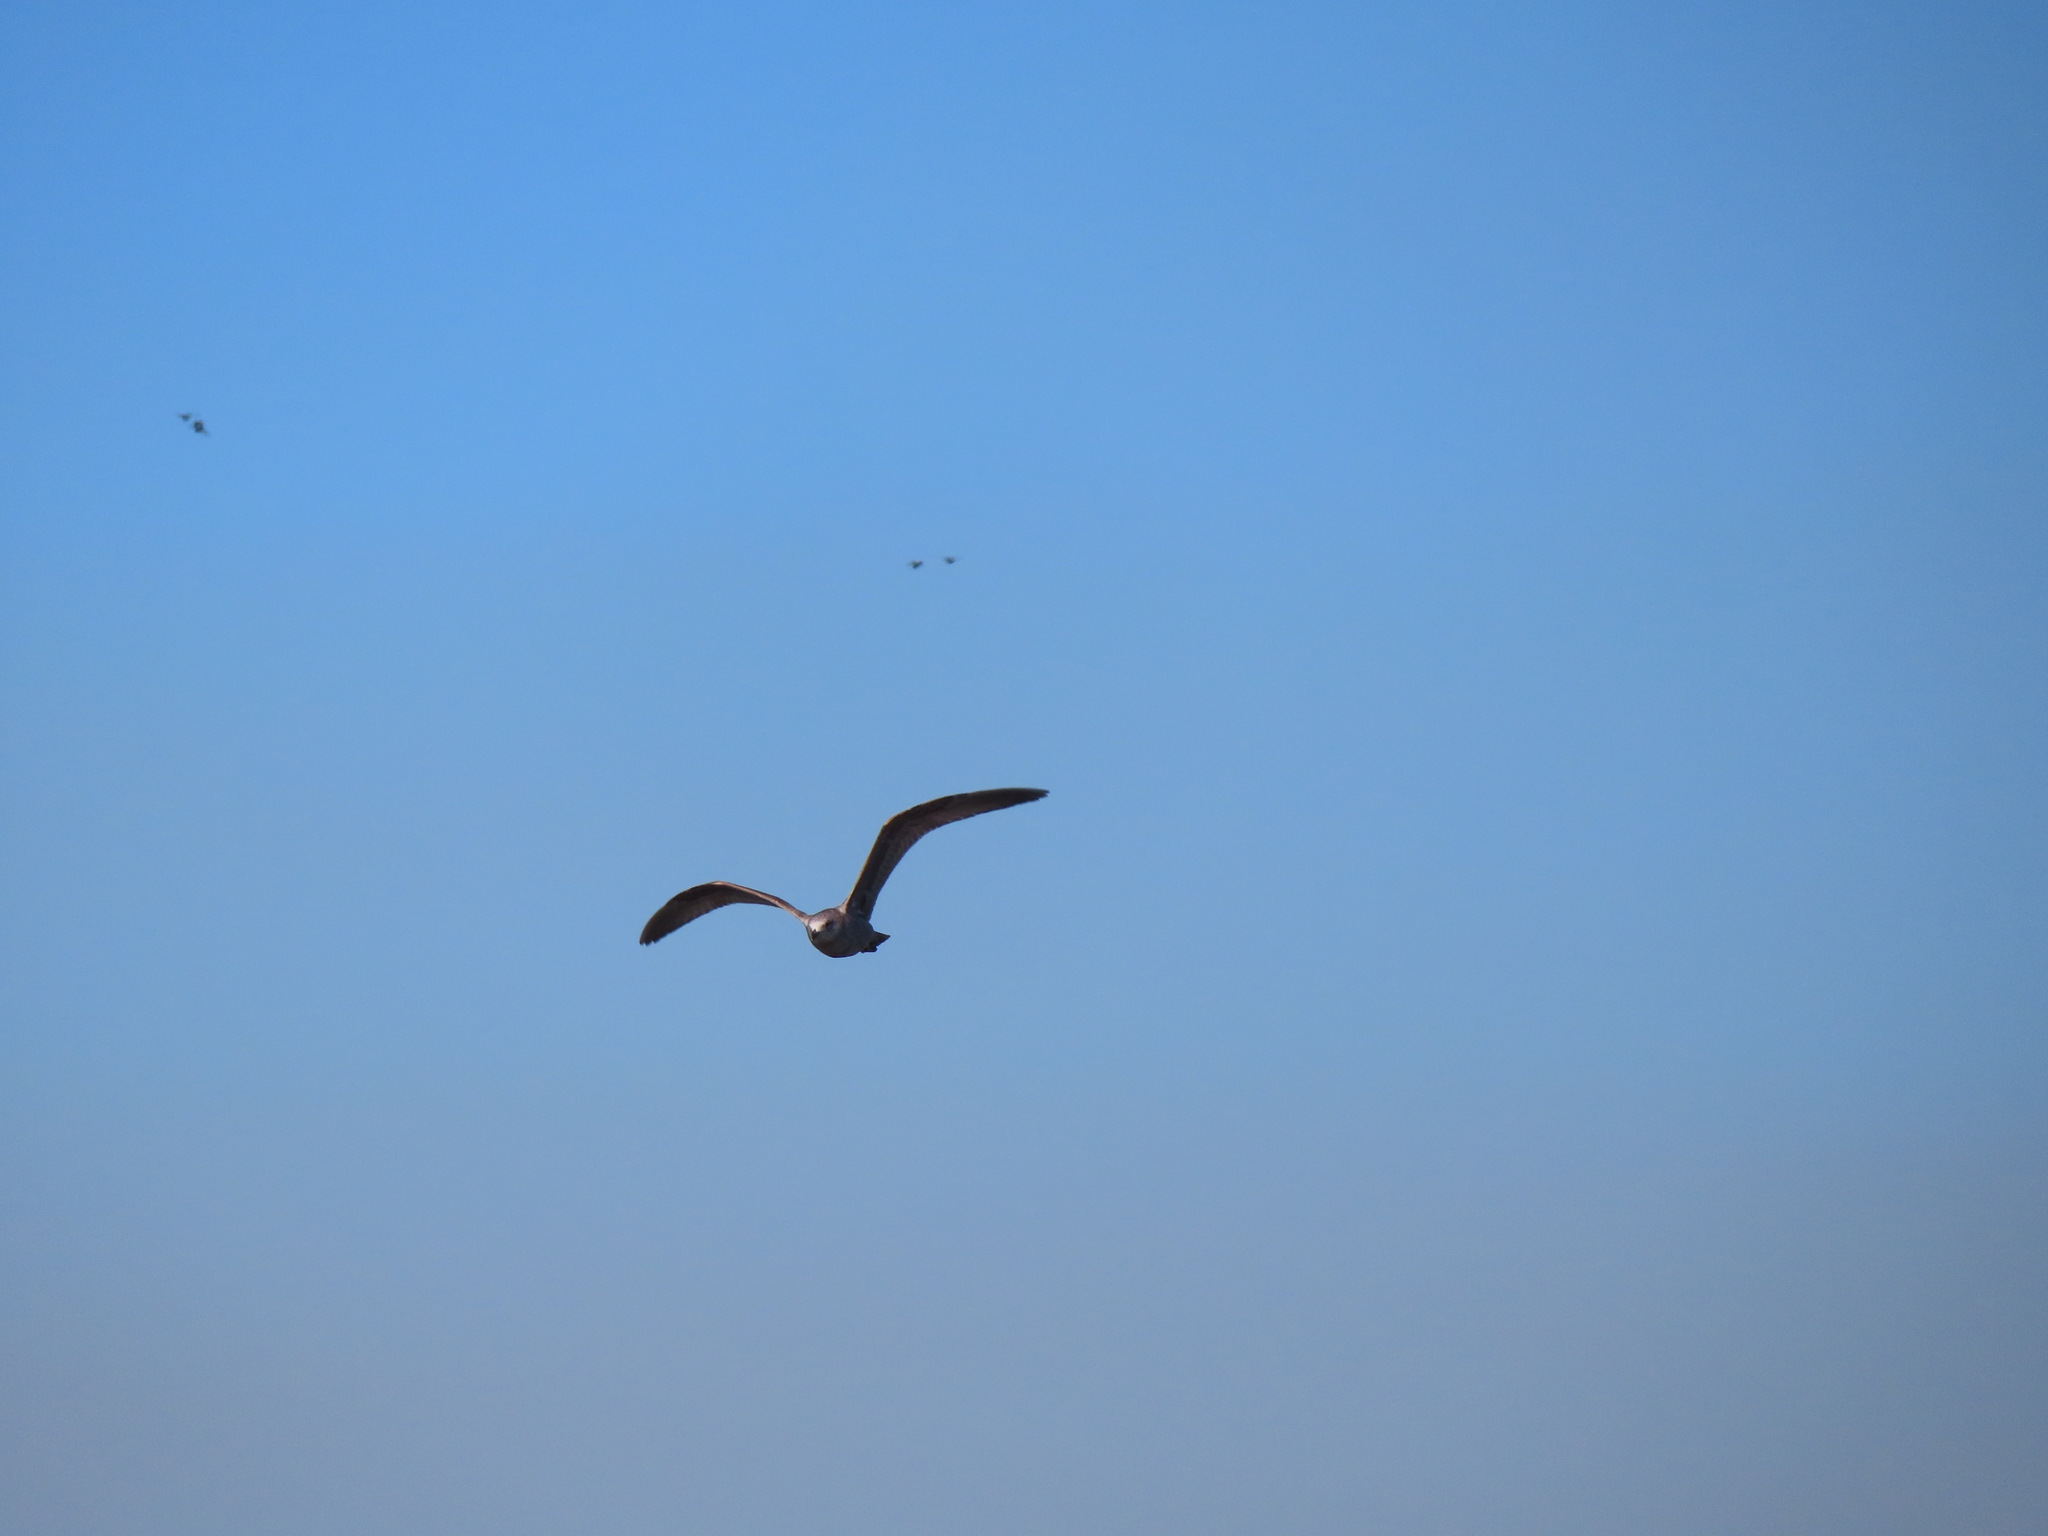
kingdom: Animalia
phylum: Chordata
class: Aves
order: Charadriiformes
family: Laridae
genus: Larus
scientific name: Larus argentatus
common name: Herring gull
